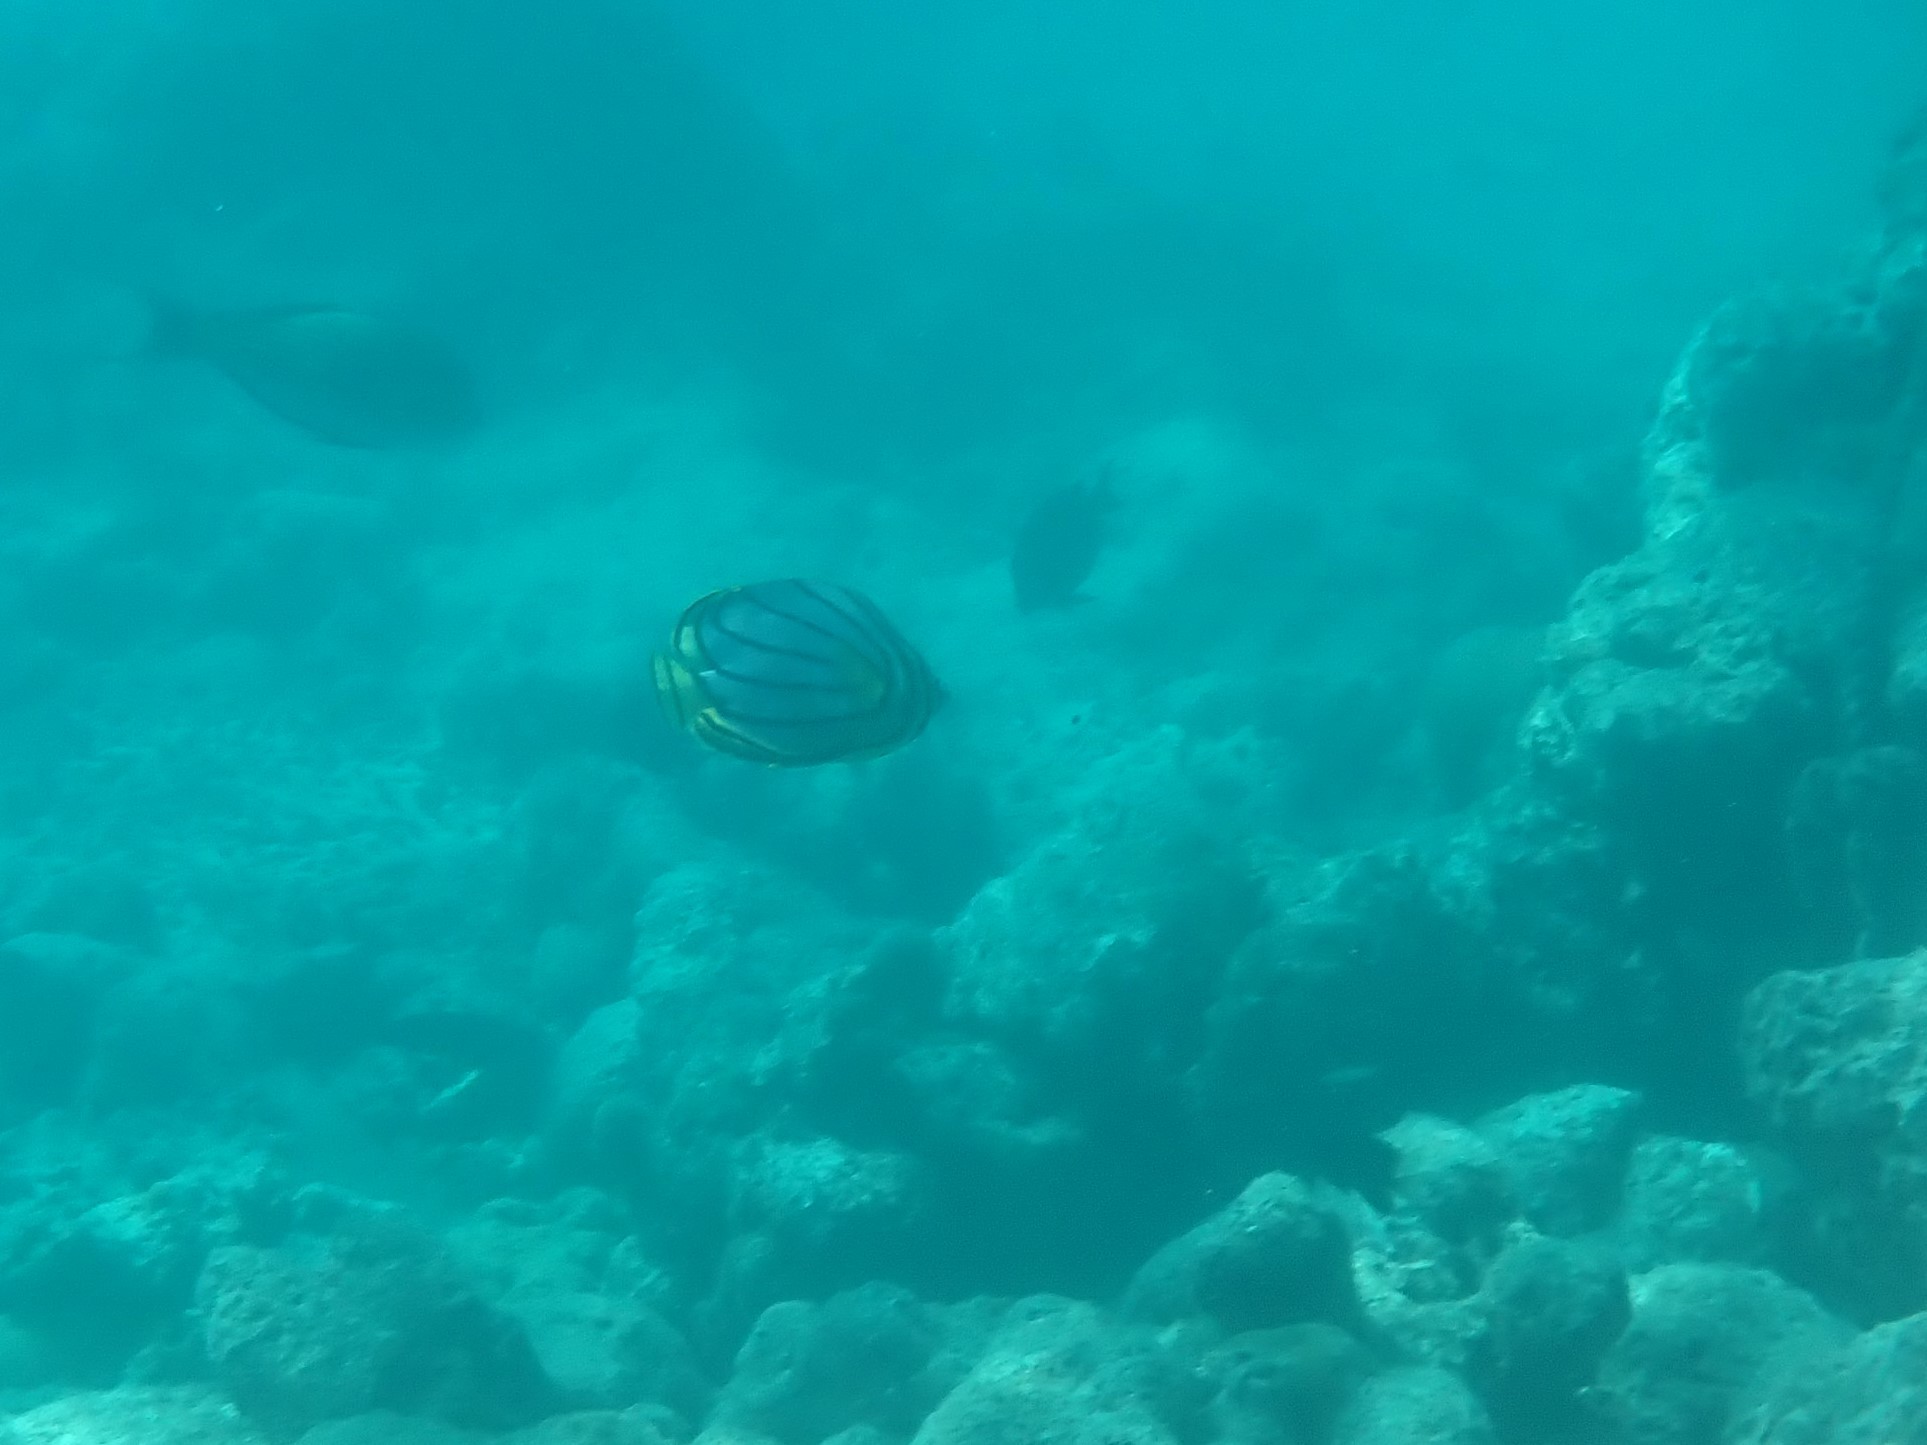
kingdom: Animalia
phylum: Chordata
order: Perciformes
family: Chaetodontidae
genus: Chaetodon
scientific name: Chaetodon meyeri
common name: Meyer's butterflyfish
